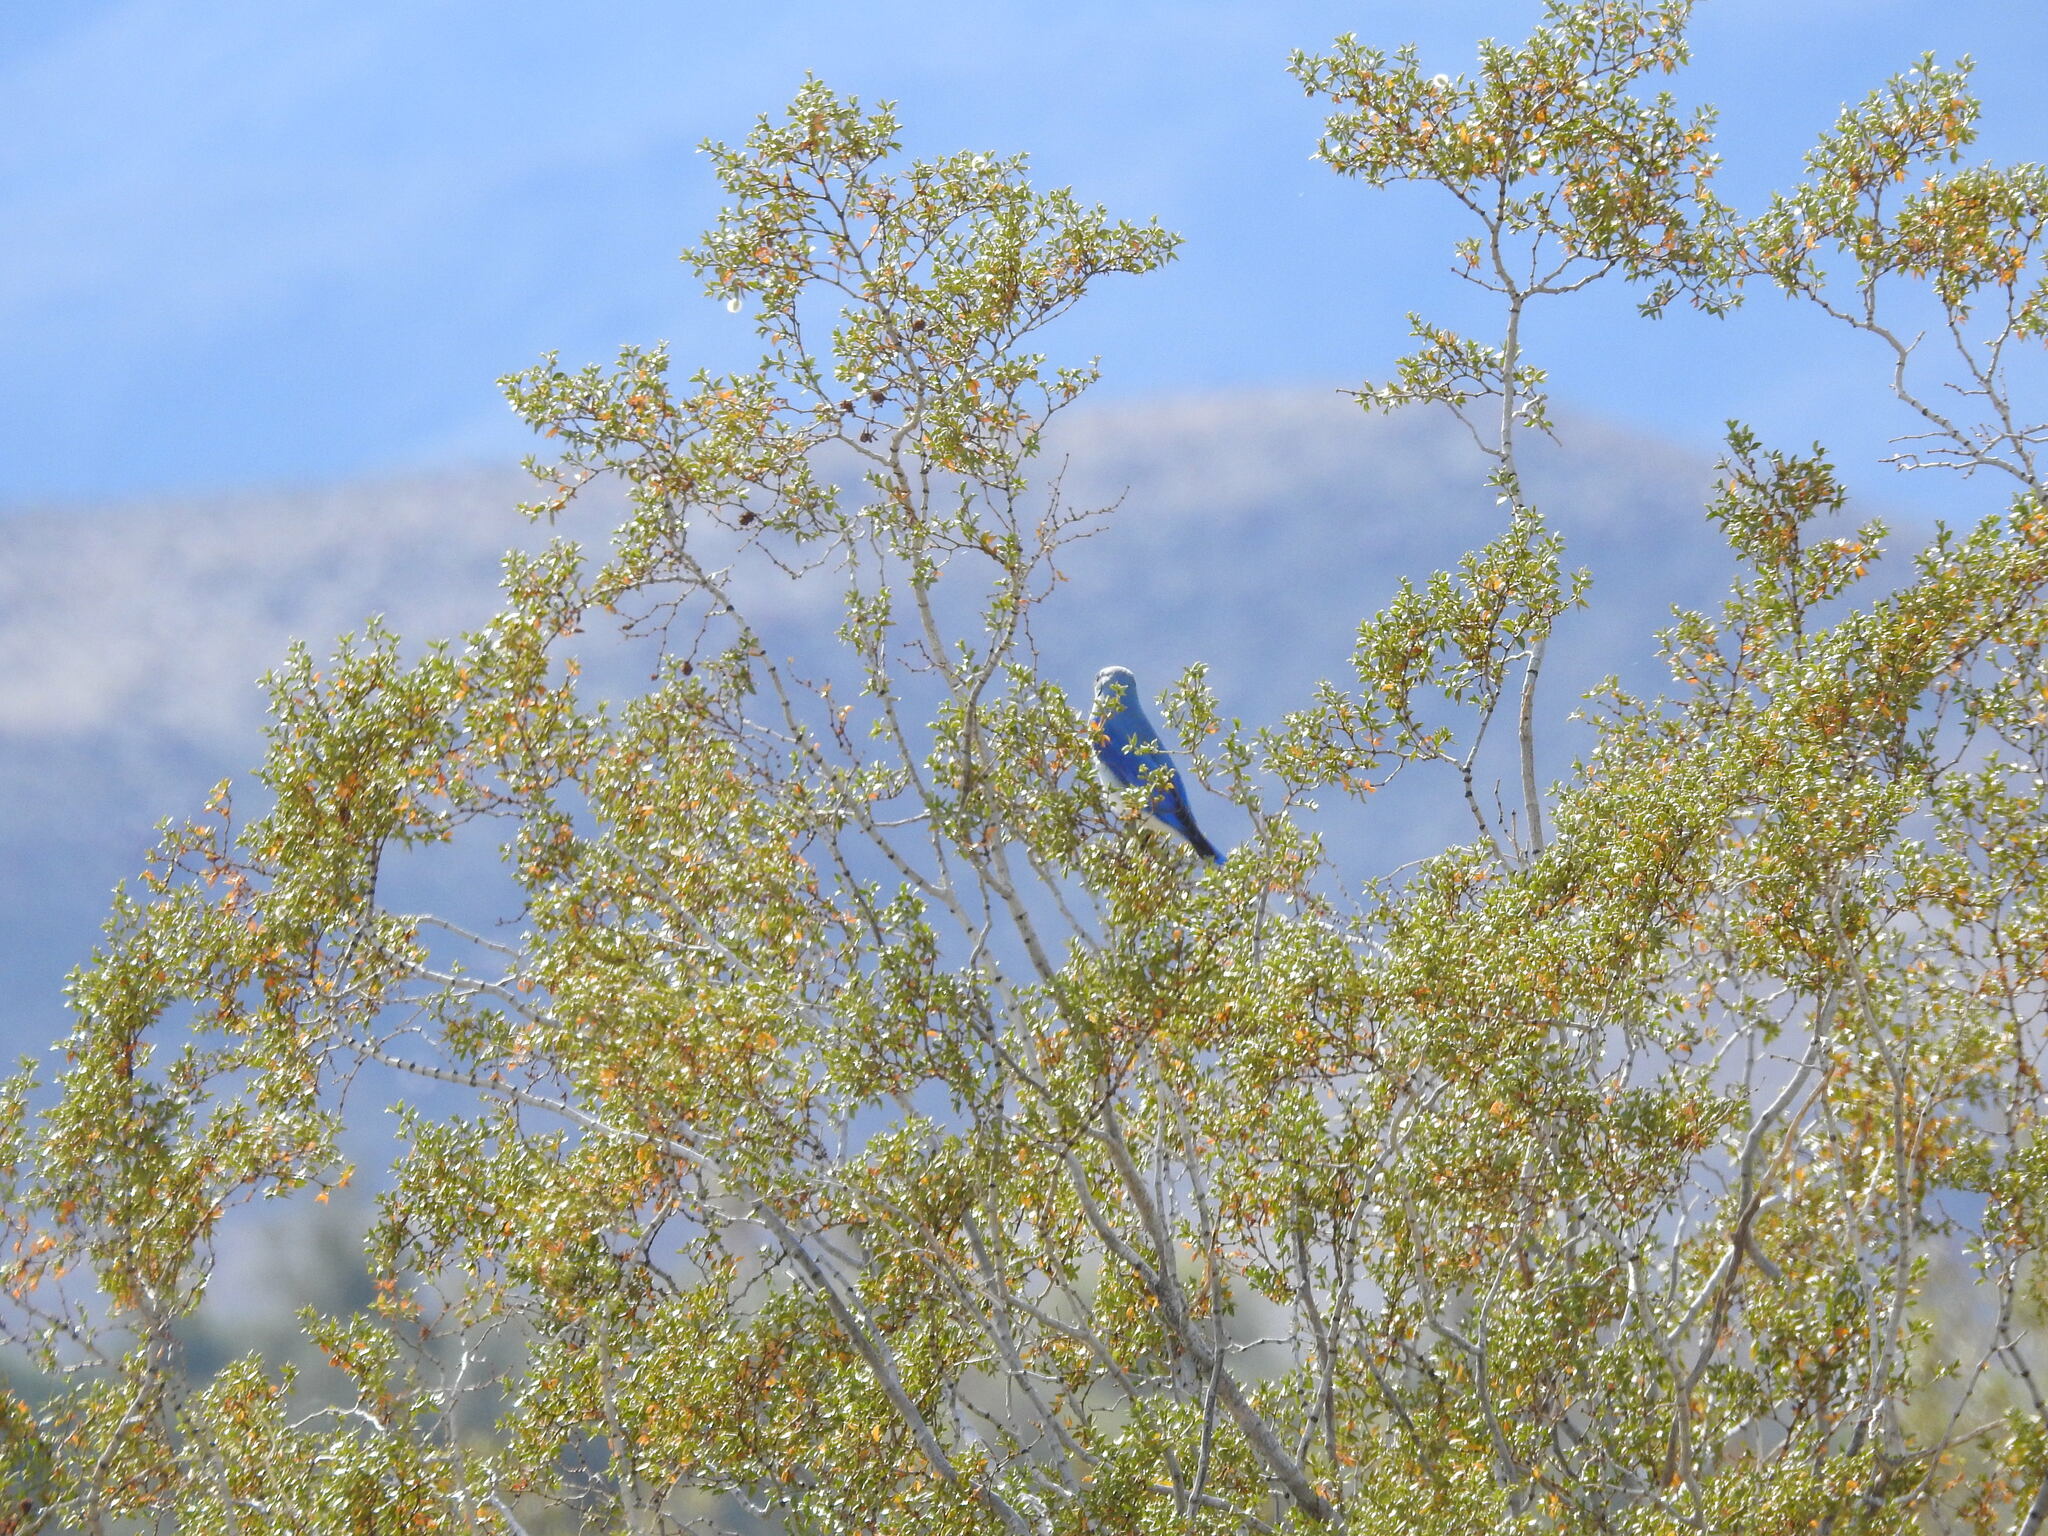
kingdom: Animalia
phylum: Chordata
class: Aves
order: Passeriformes
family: Turdidae
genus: Sialia
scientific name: Sialia currucoides
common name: Mountain bluebird
